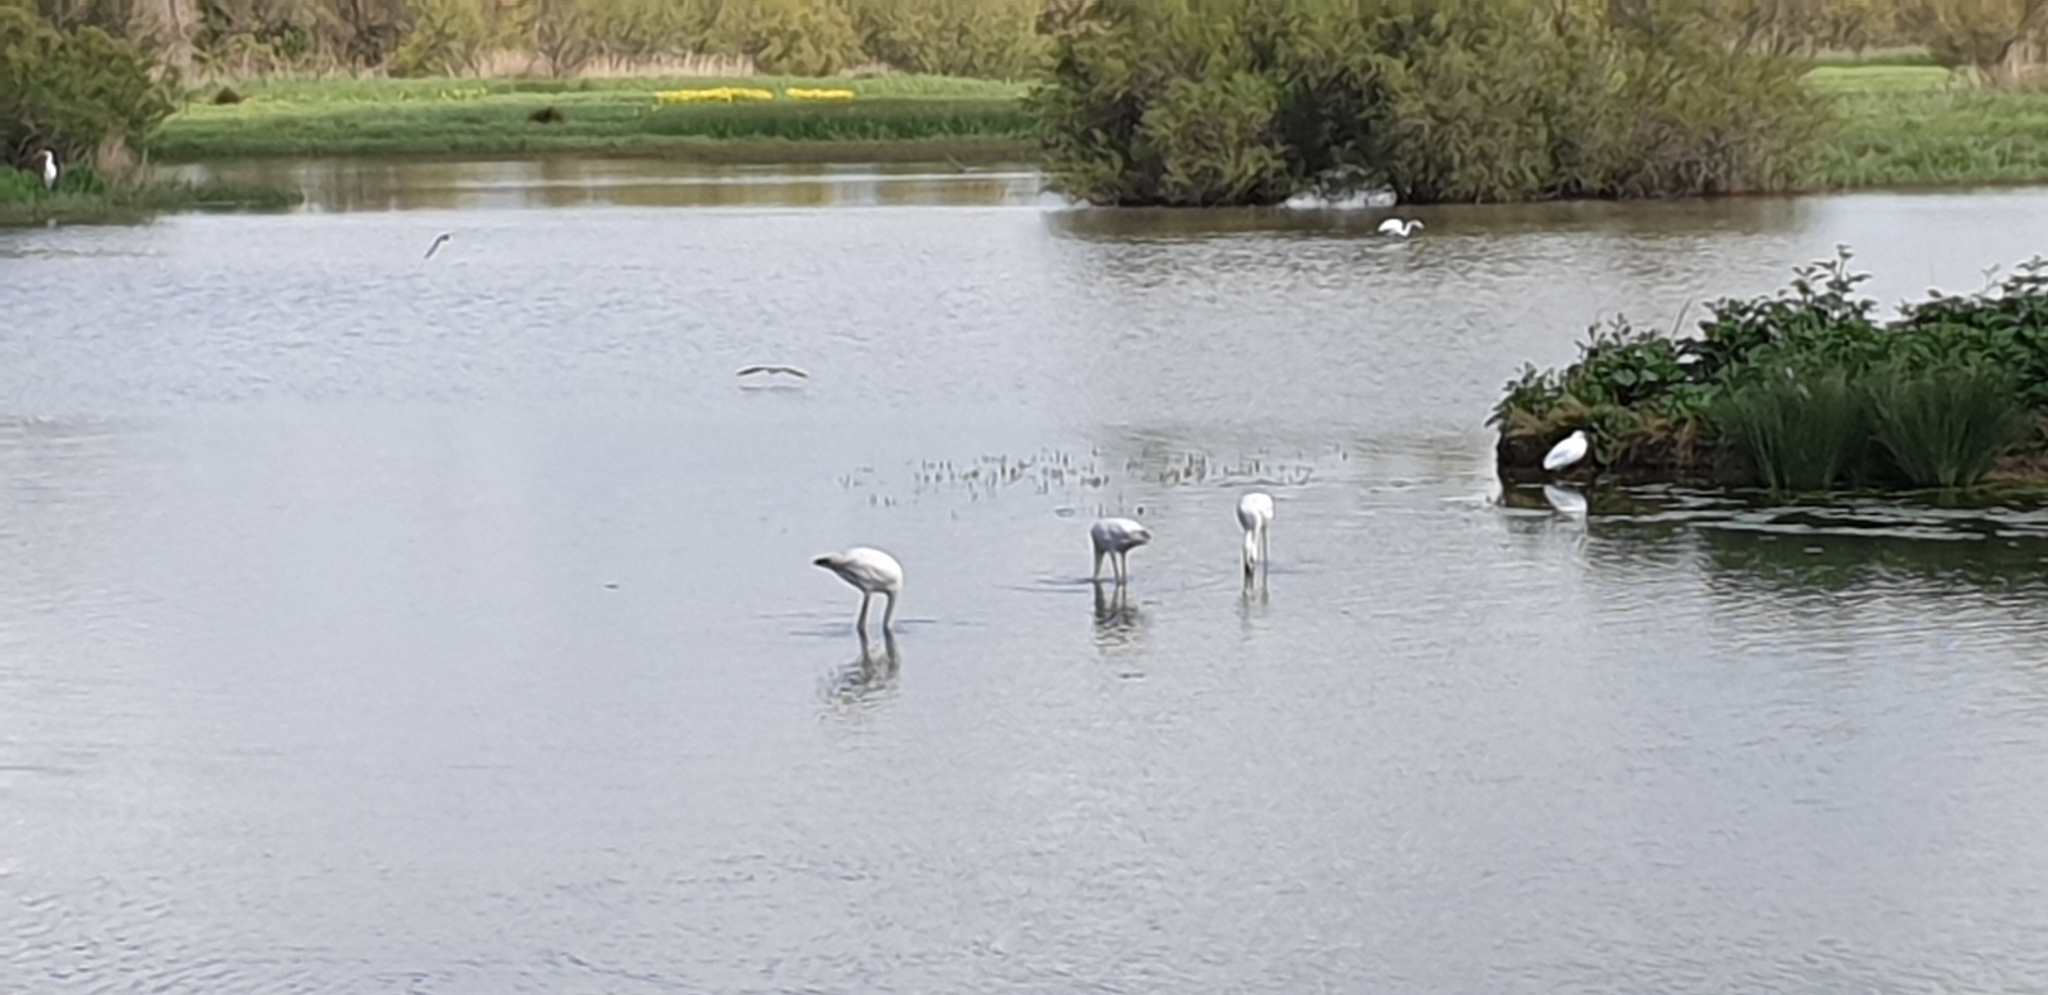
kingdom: Animalia
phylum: Chordata
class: Aves
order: Phoenicopteriformes
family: Phoenicopteridae
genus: Phoenicopterus
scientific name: Phoenicopterus roseus
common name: Greater flamingo
